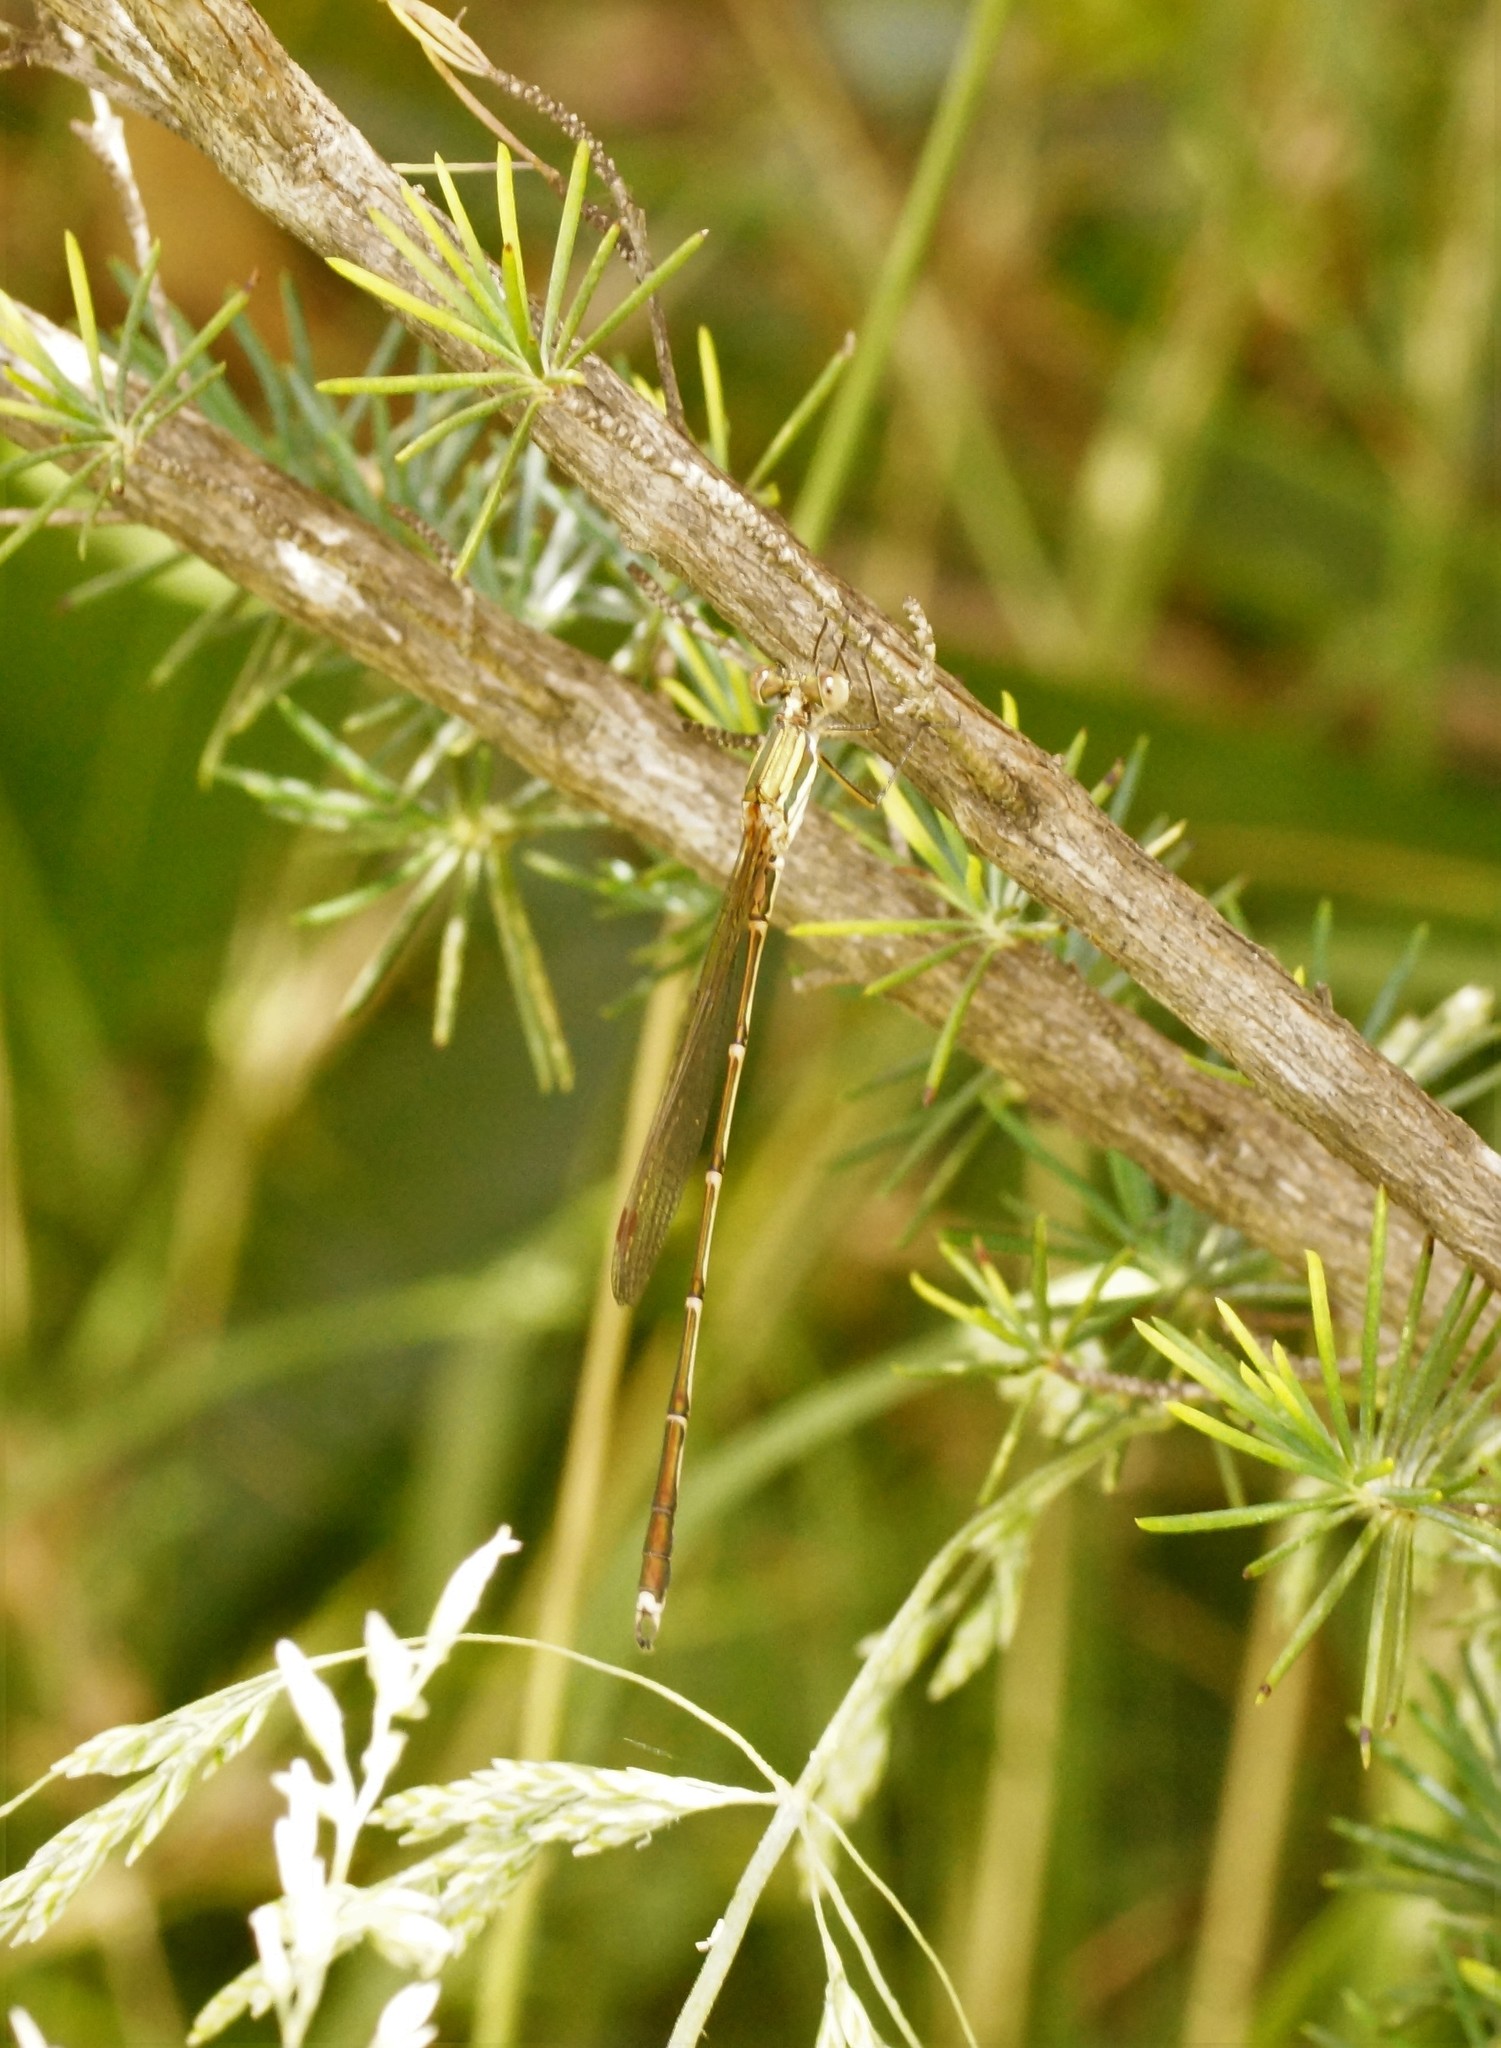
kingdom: Animalia
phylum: Arthropoda
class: Insecta
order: Odonata
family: Lestidae
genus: Austrolestes
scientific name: Austrolestes analis
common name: Slender ringtail
